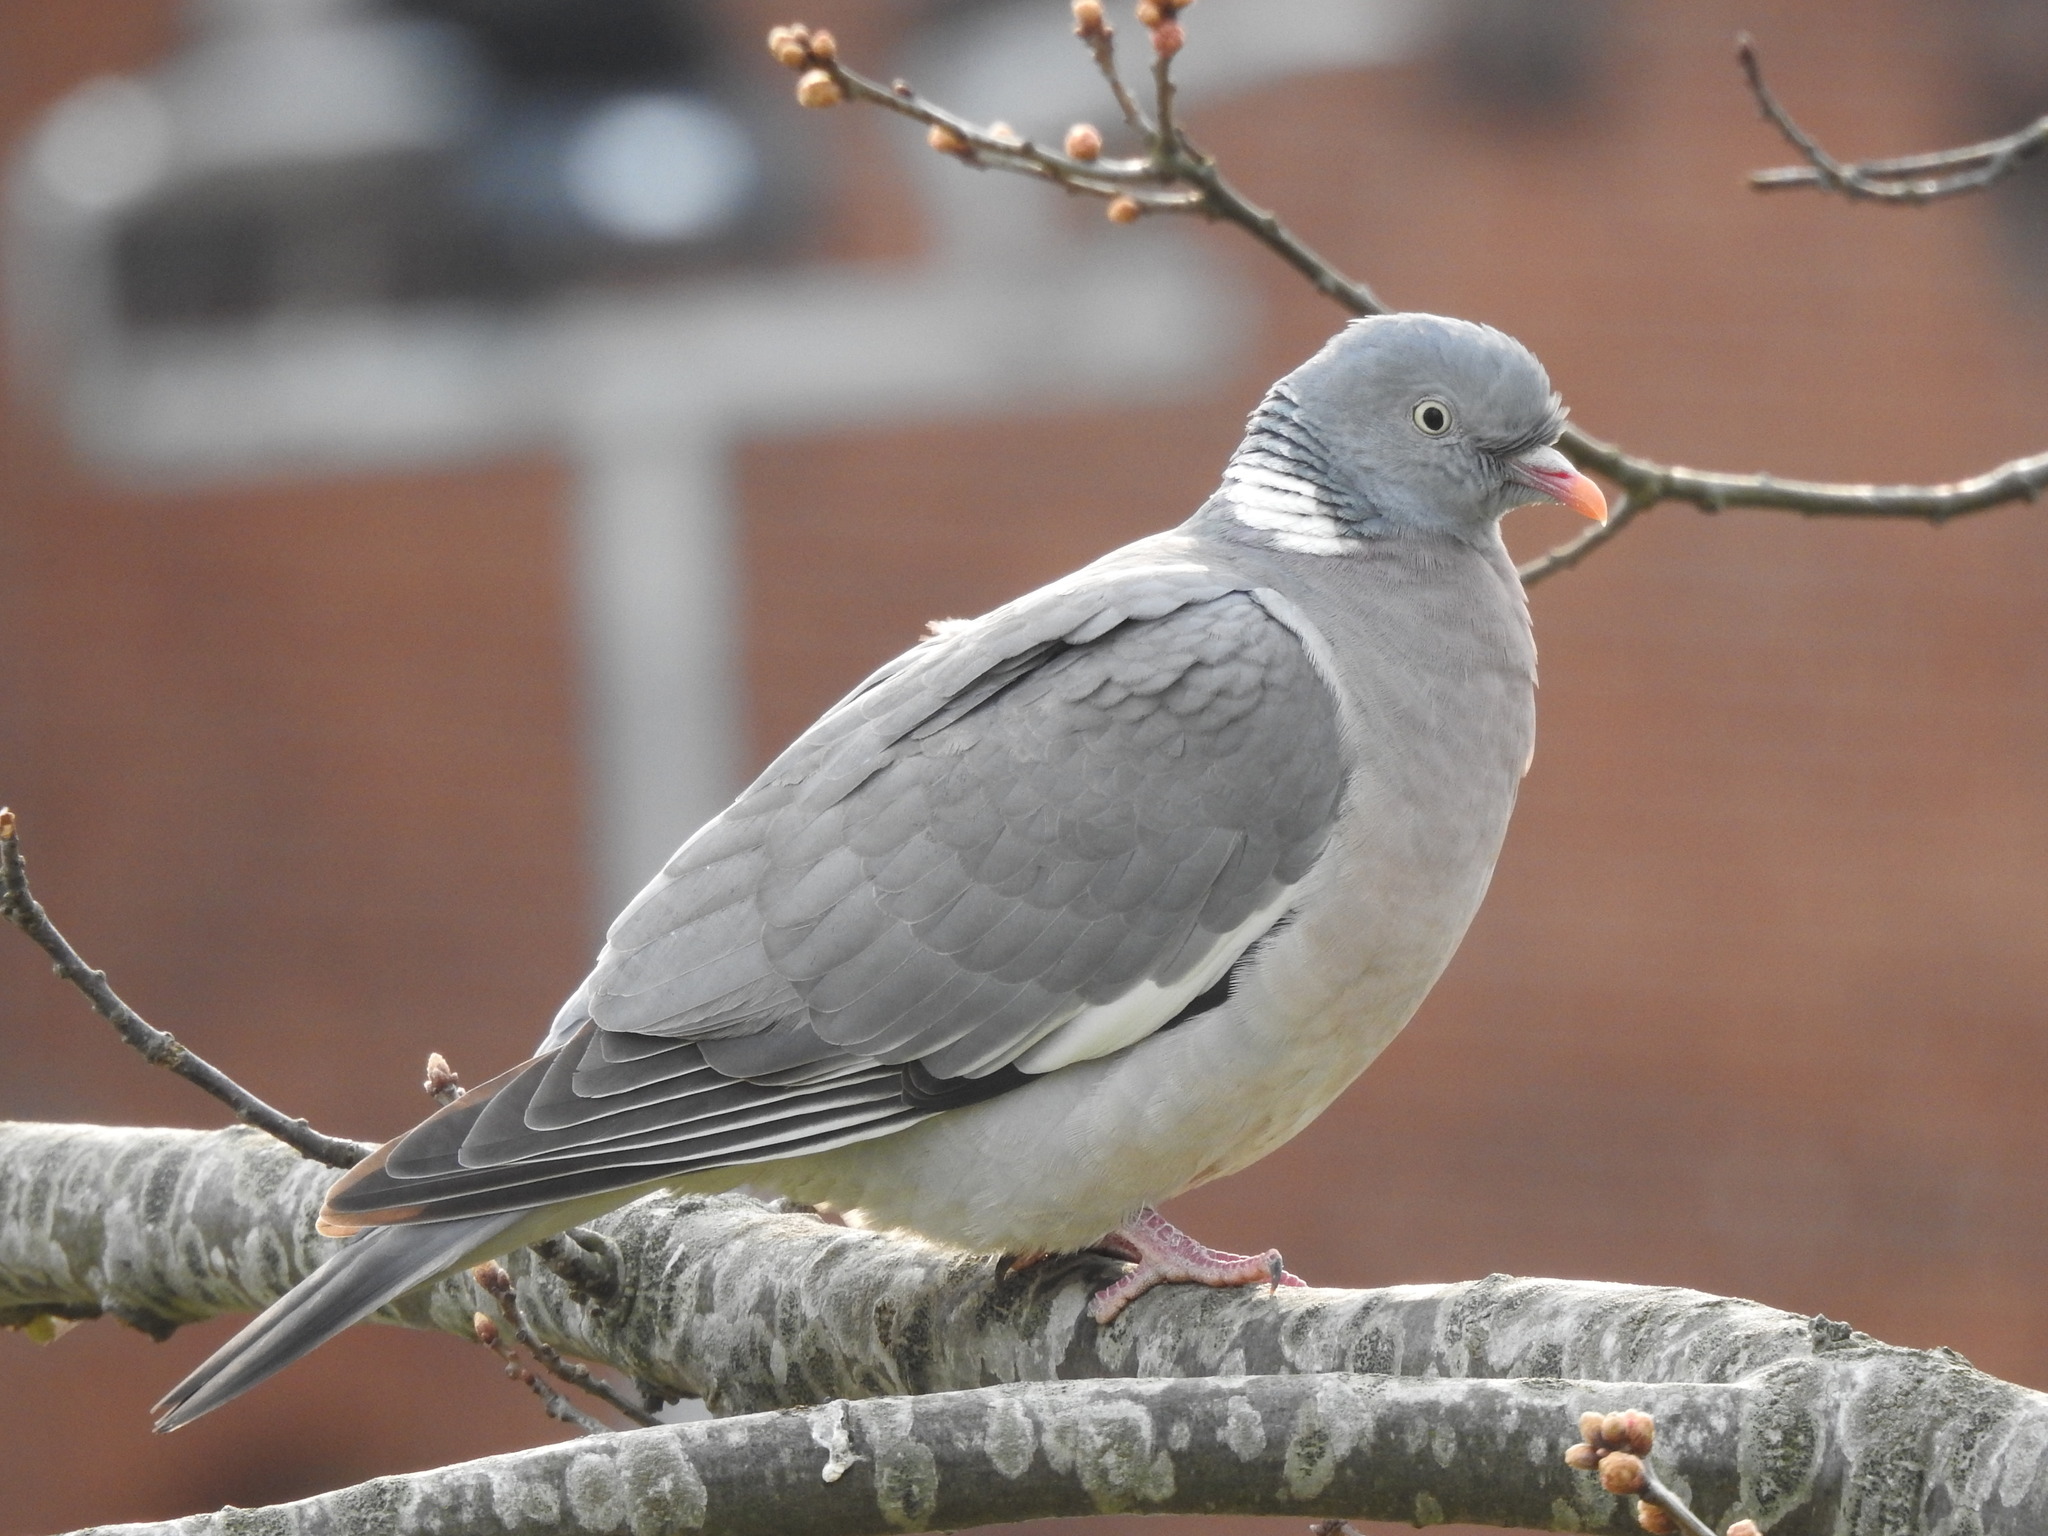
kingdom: Animalia
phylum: Chordata
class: Aves
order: Columbiformes
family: Columbidae
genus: Columba
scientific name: Columba palumbus
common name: Common wood pigeon
